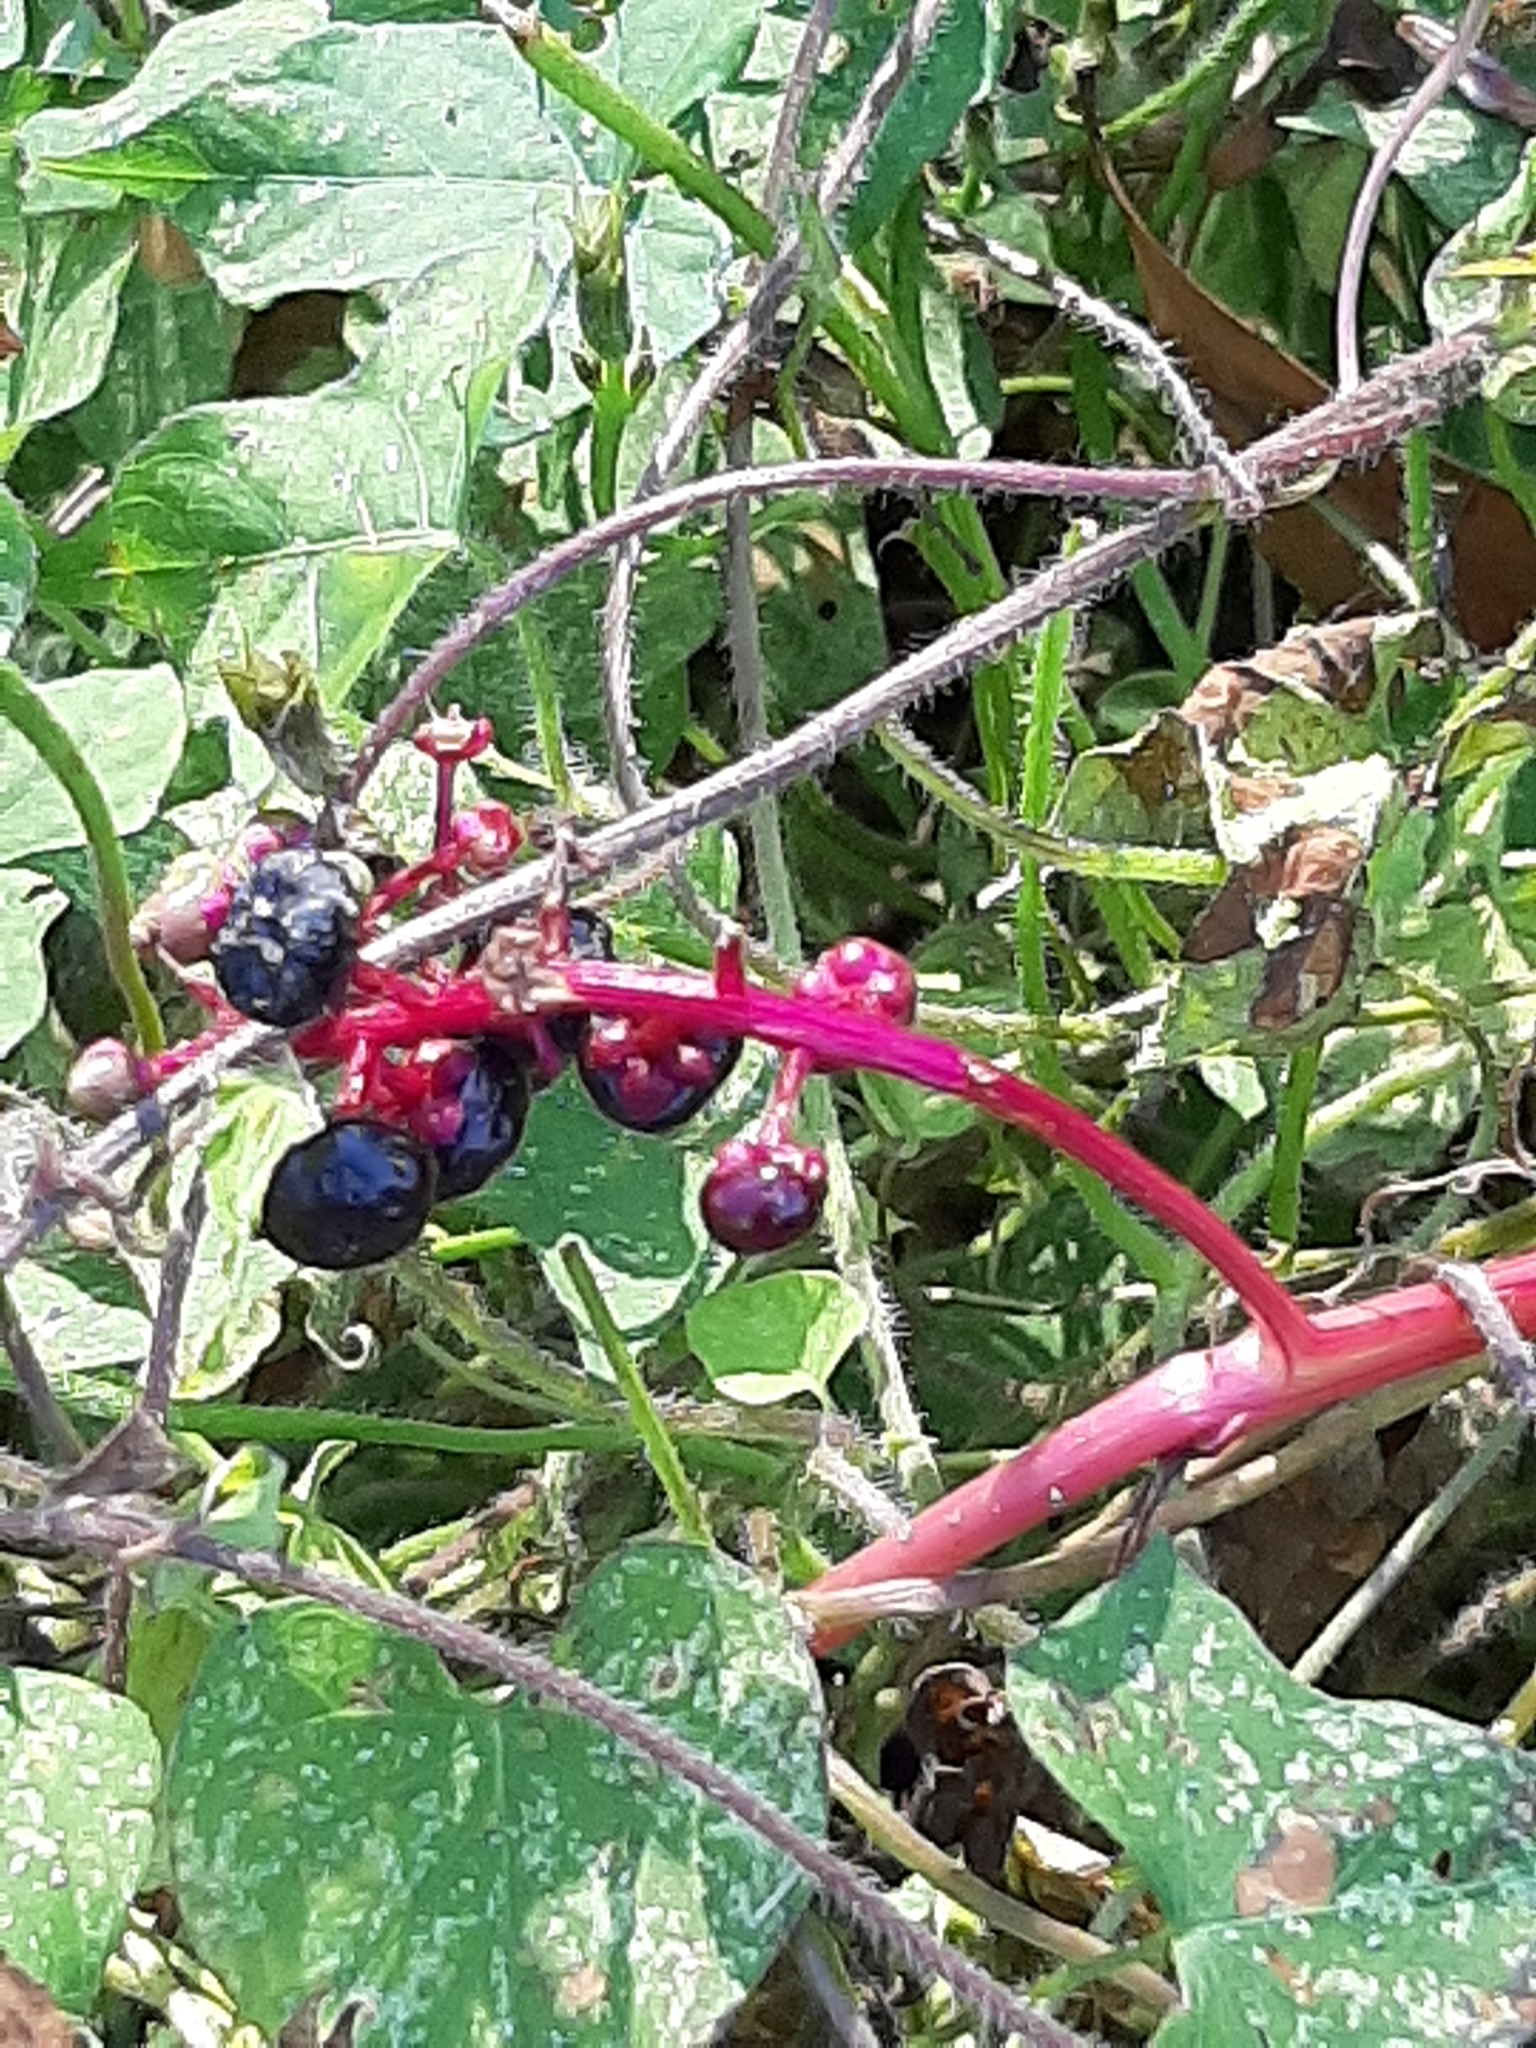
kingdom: Plantae
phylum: Tracheophyta
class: Magnoliopsida
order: Caryophyllales
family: Phytolaccaceae
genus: Phytolacca
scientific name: Phytolacca americana
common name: American pokeweed
